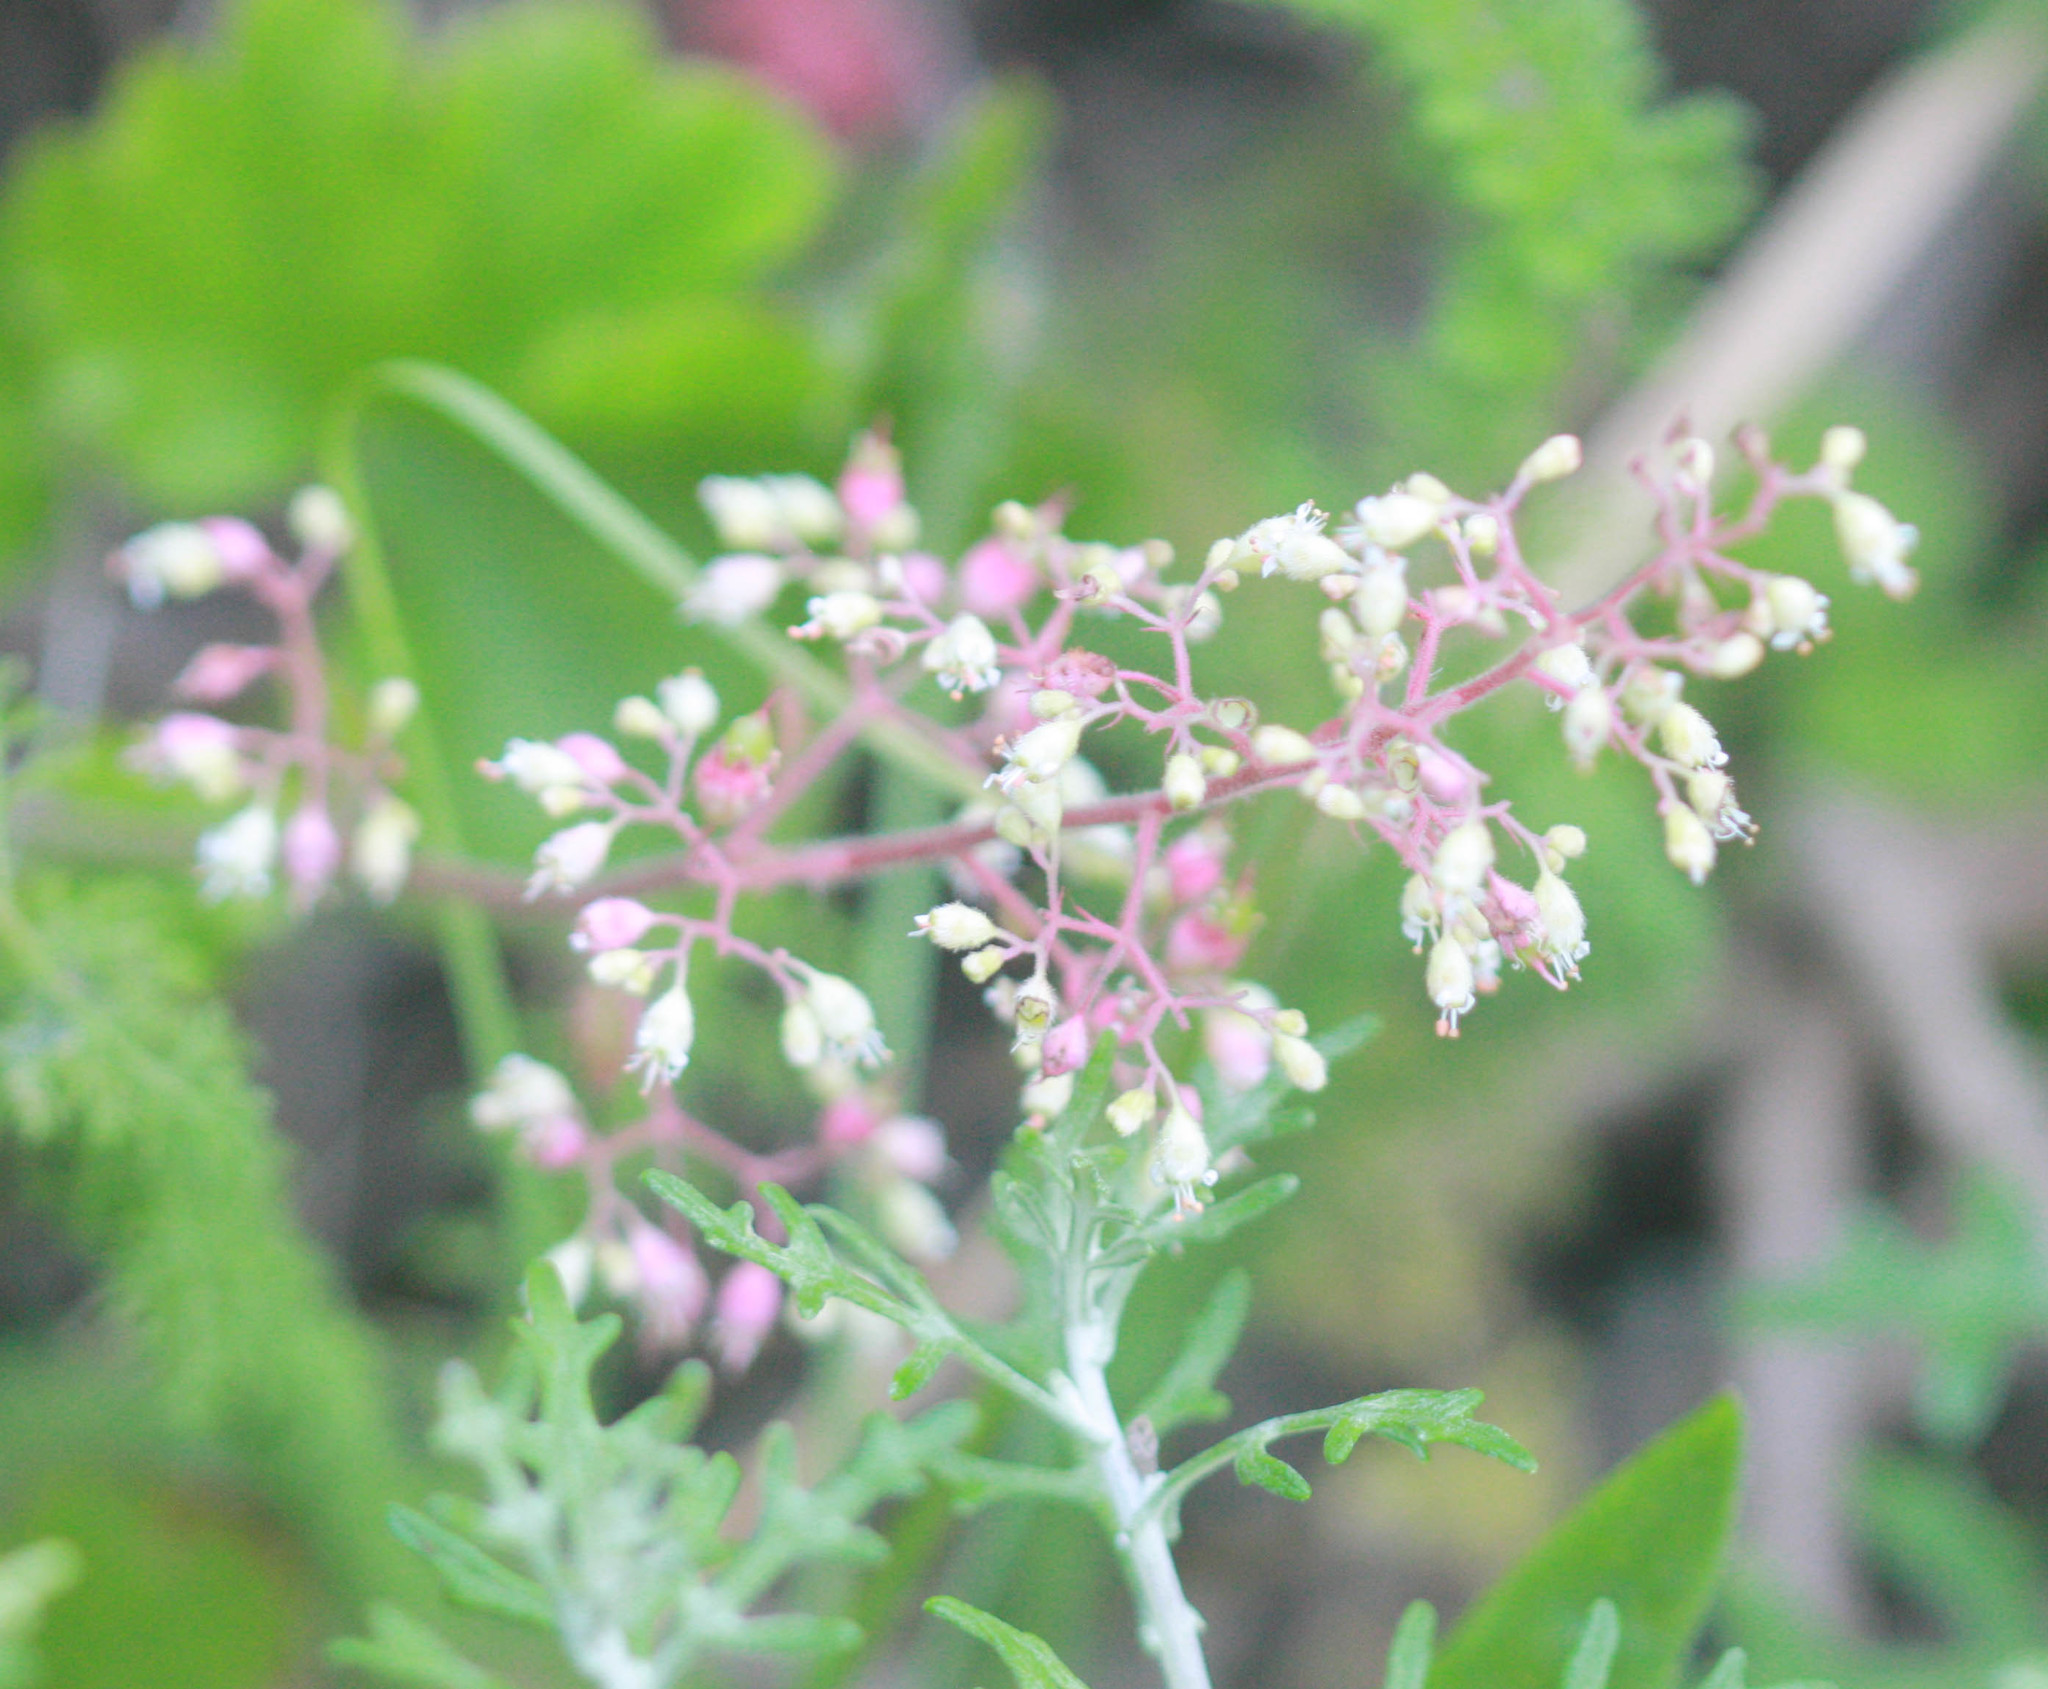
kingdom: Plantae
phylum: Tracheophyta
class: Magnoliopsida
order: Saxifragales
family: Saxifragaceae
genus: Heuchera
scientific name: Heuchera micrantha
